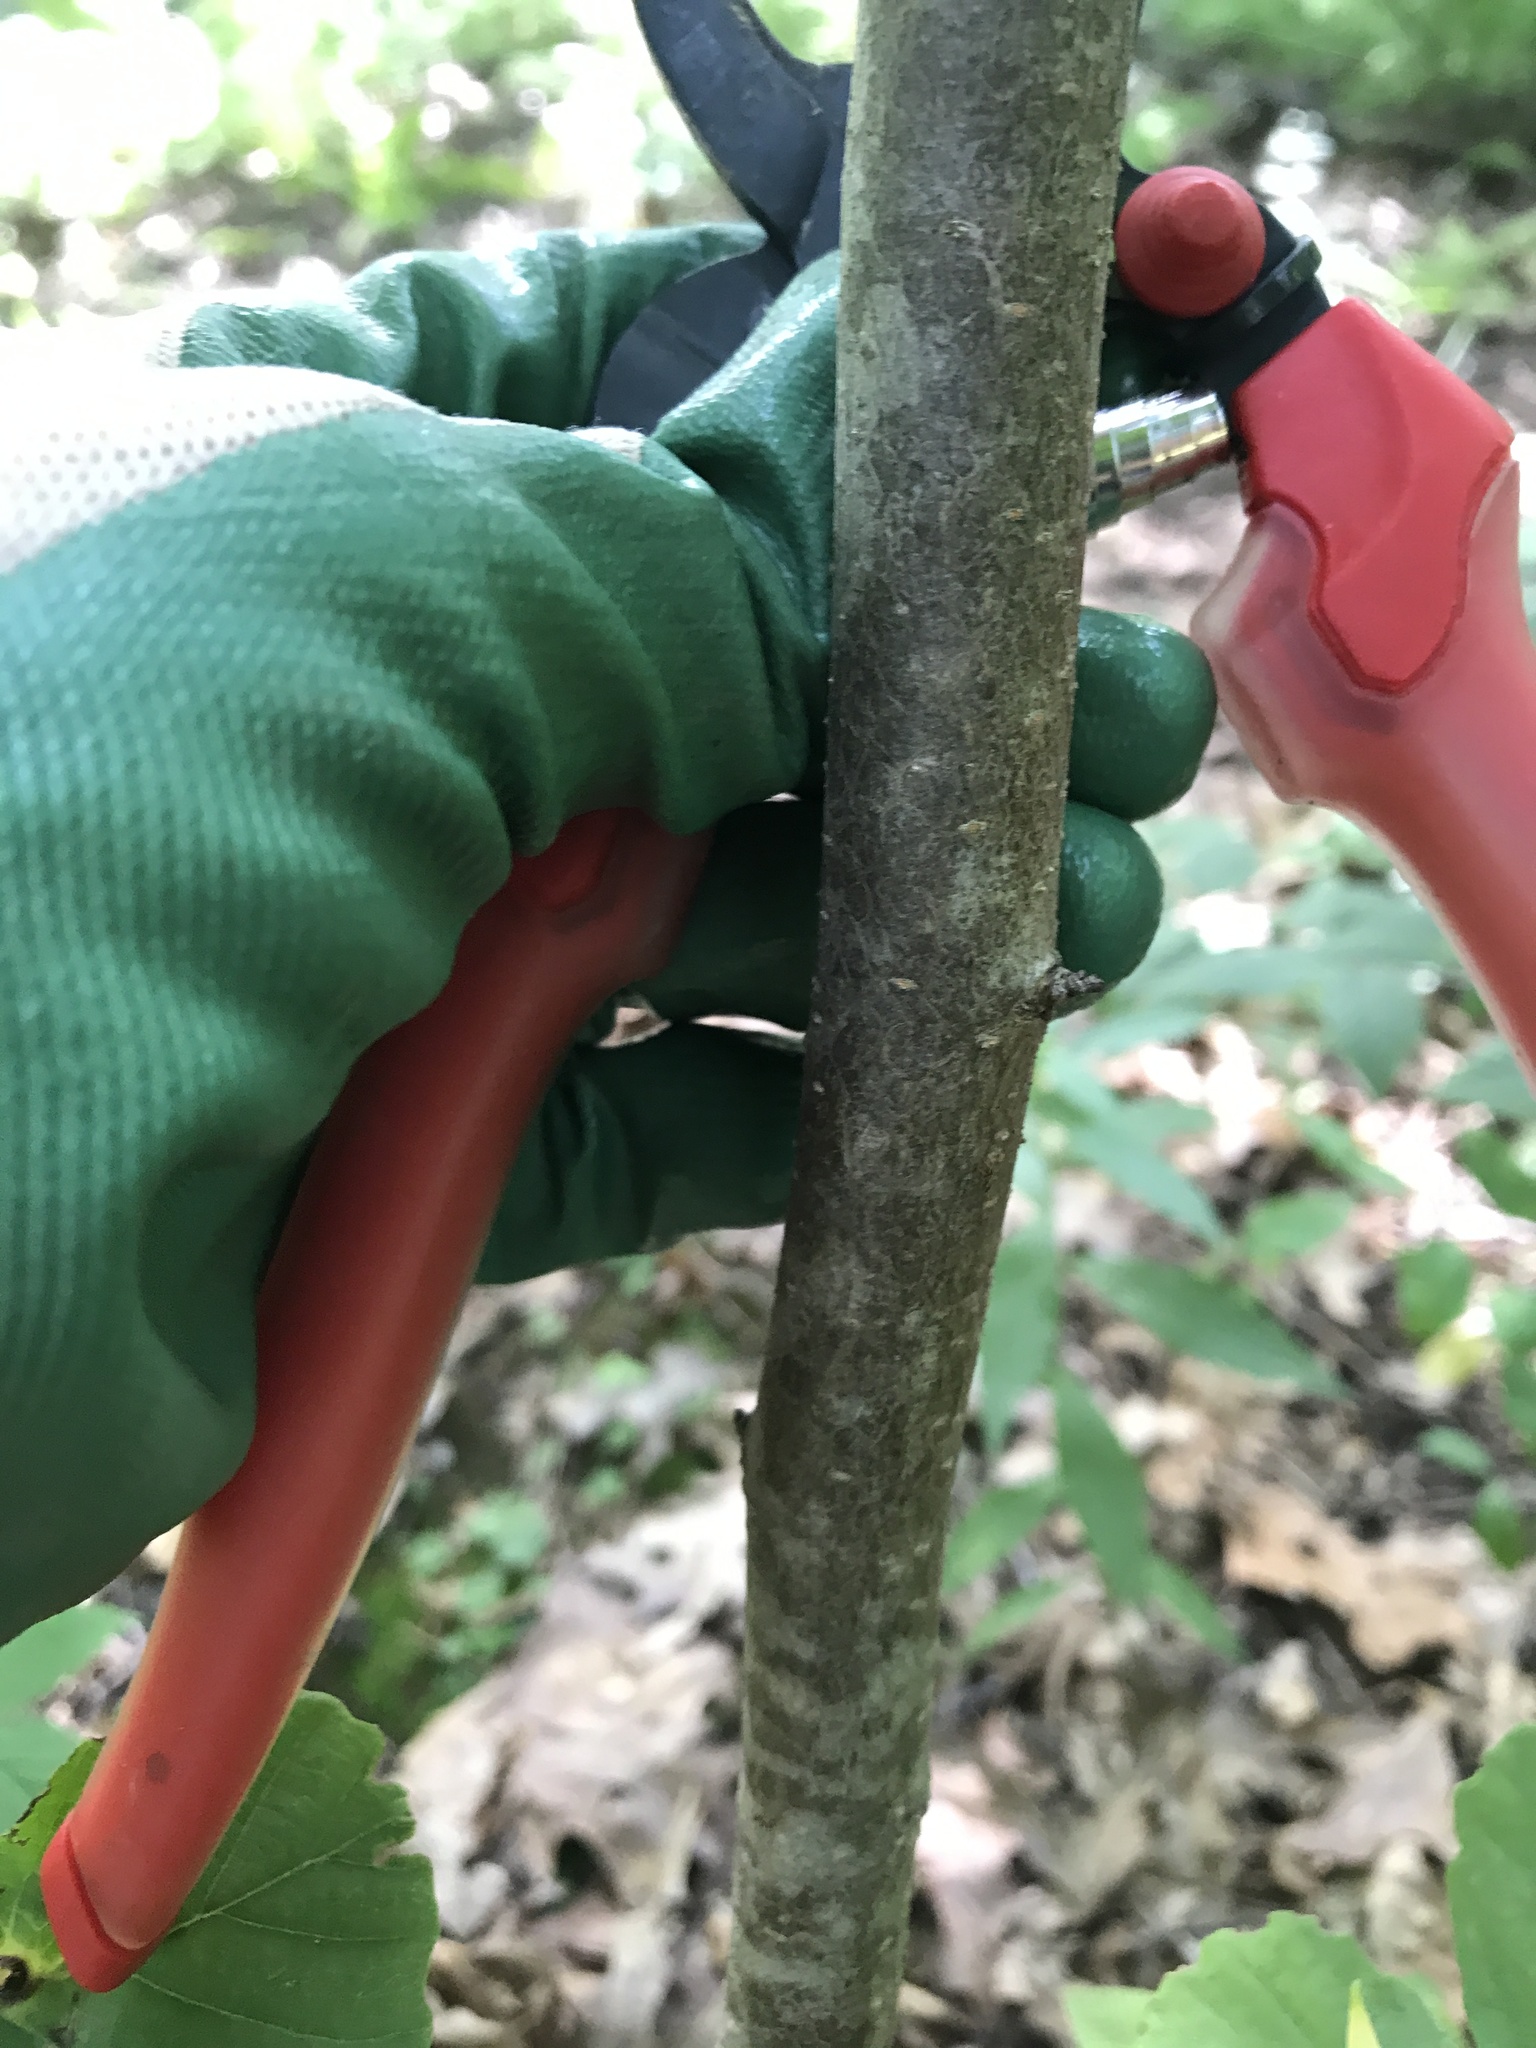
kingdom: Plantae
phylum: Tracheophyta
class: Magnoliopsida
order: Saxifragales
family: Hamamelidaceae
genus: Hamamelis
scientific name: Hamamelis virginiana
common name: Witch-hazel
